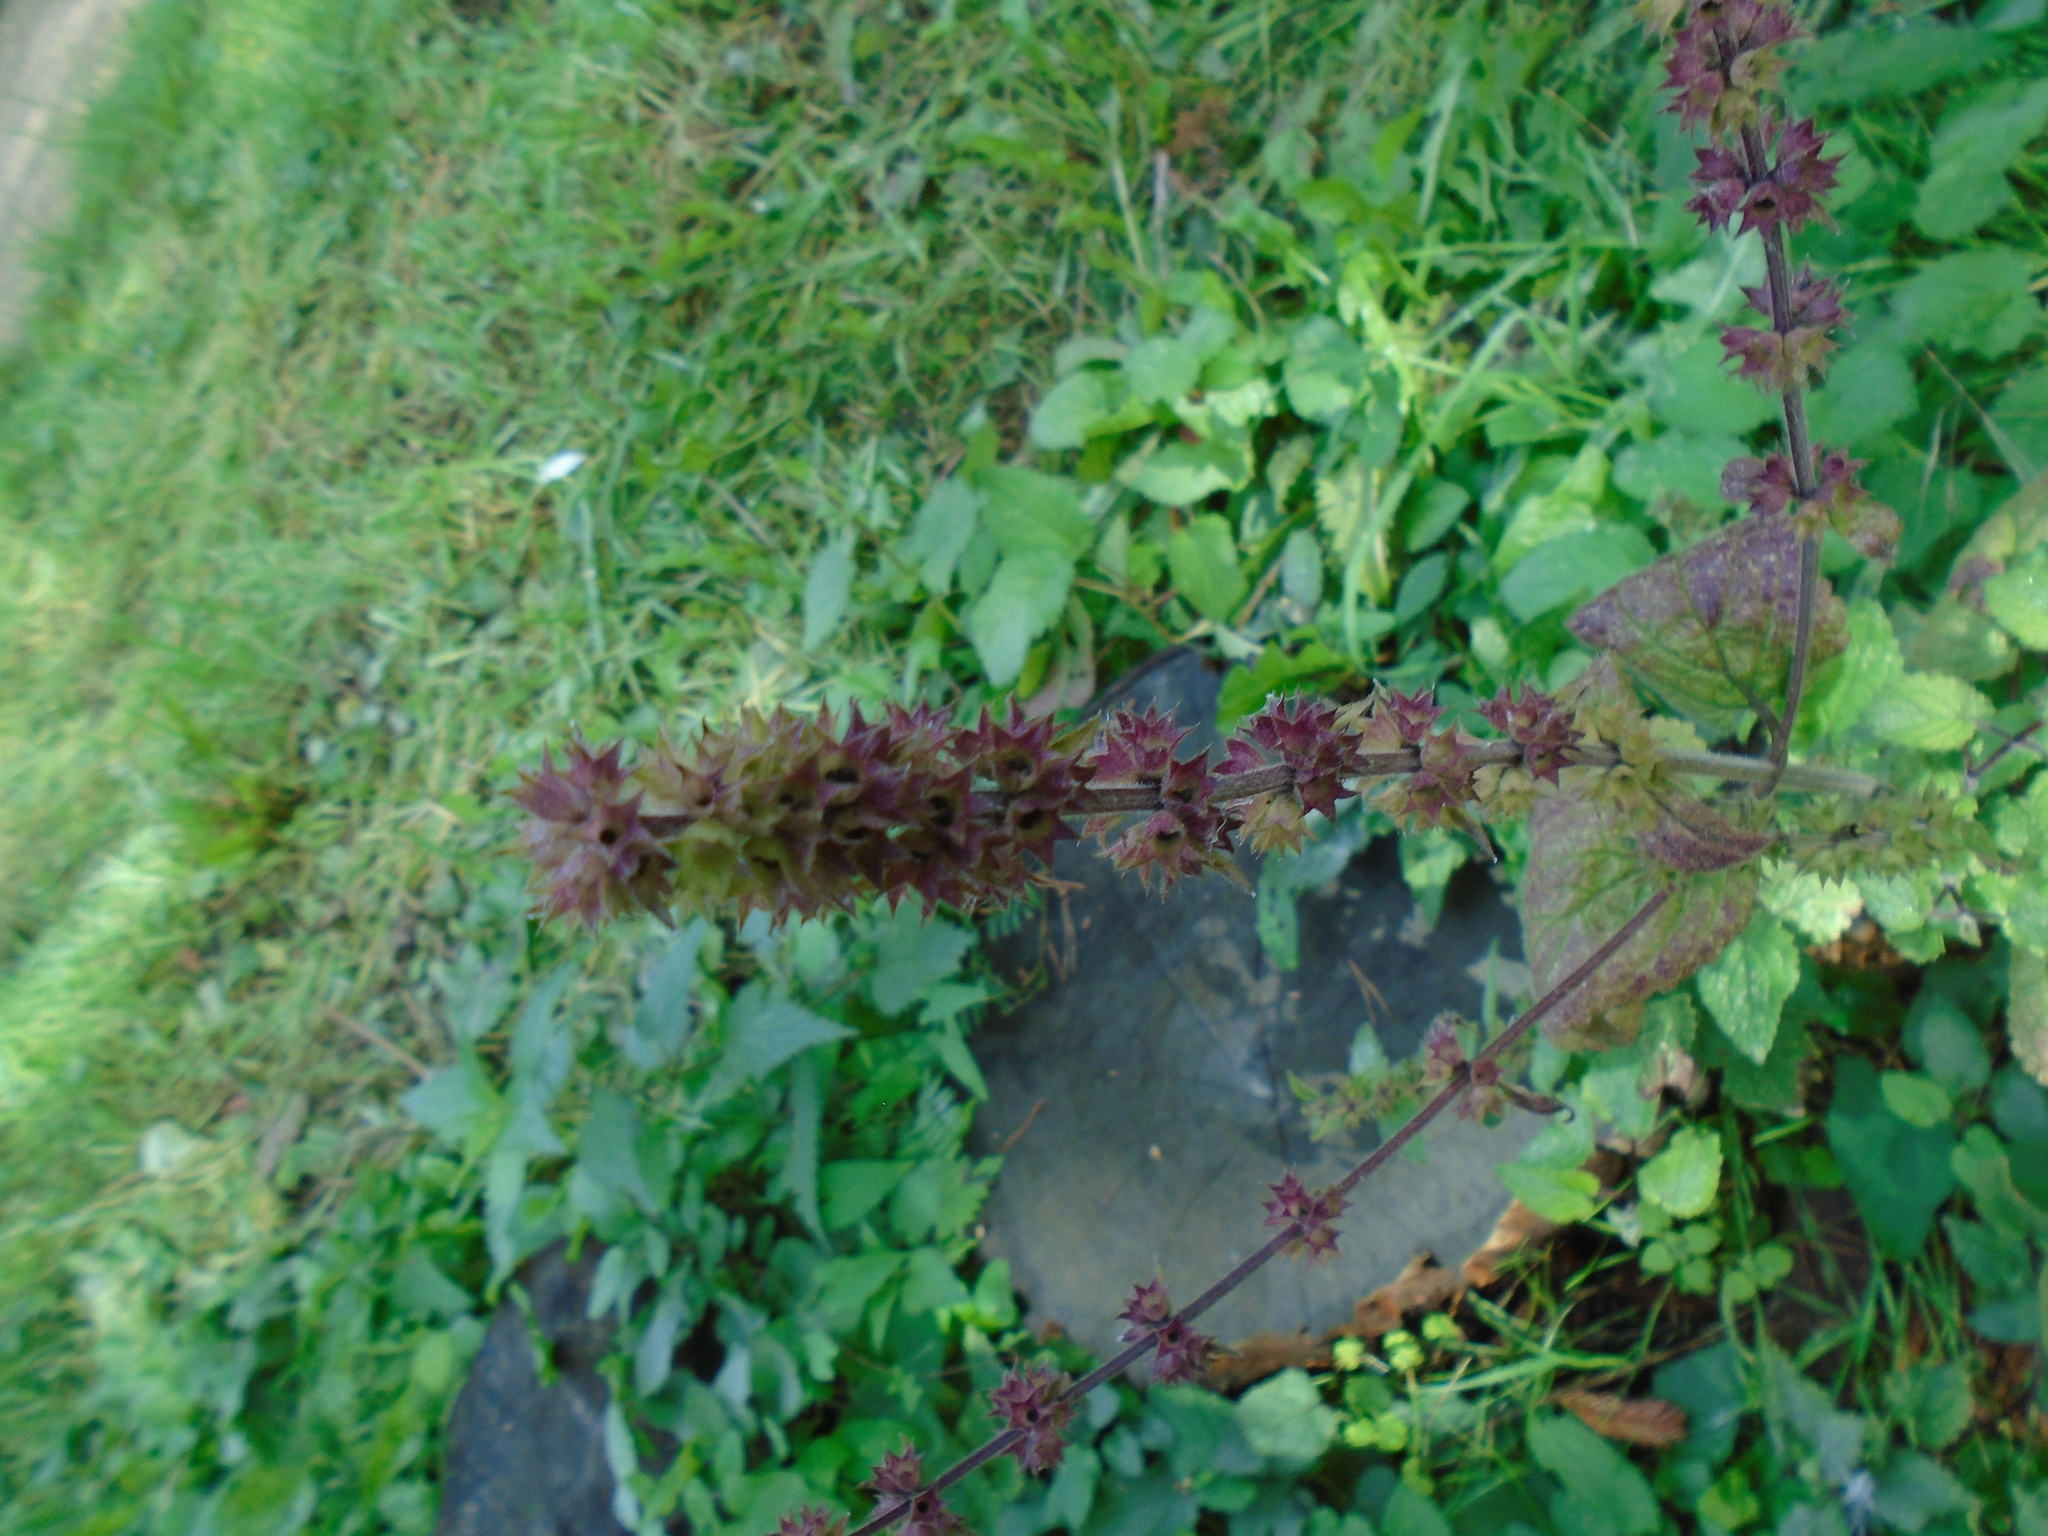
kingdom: Plantae
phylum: Tracheophyta
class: Magnoliopsida
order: Lamiales
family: Lamiaceae
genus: Stachys
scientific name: Stachys sylvatica
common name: Hedge woundwort
